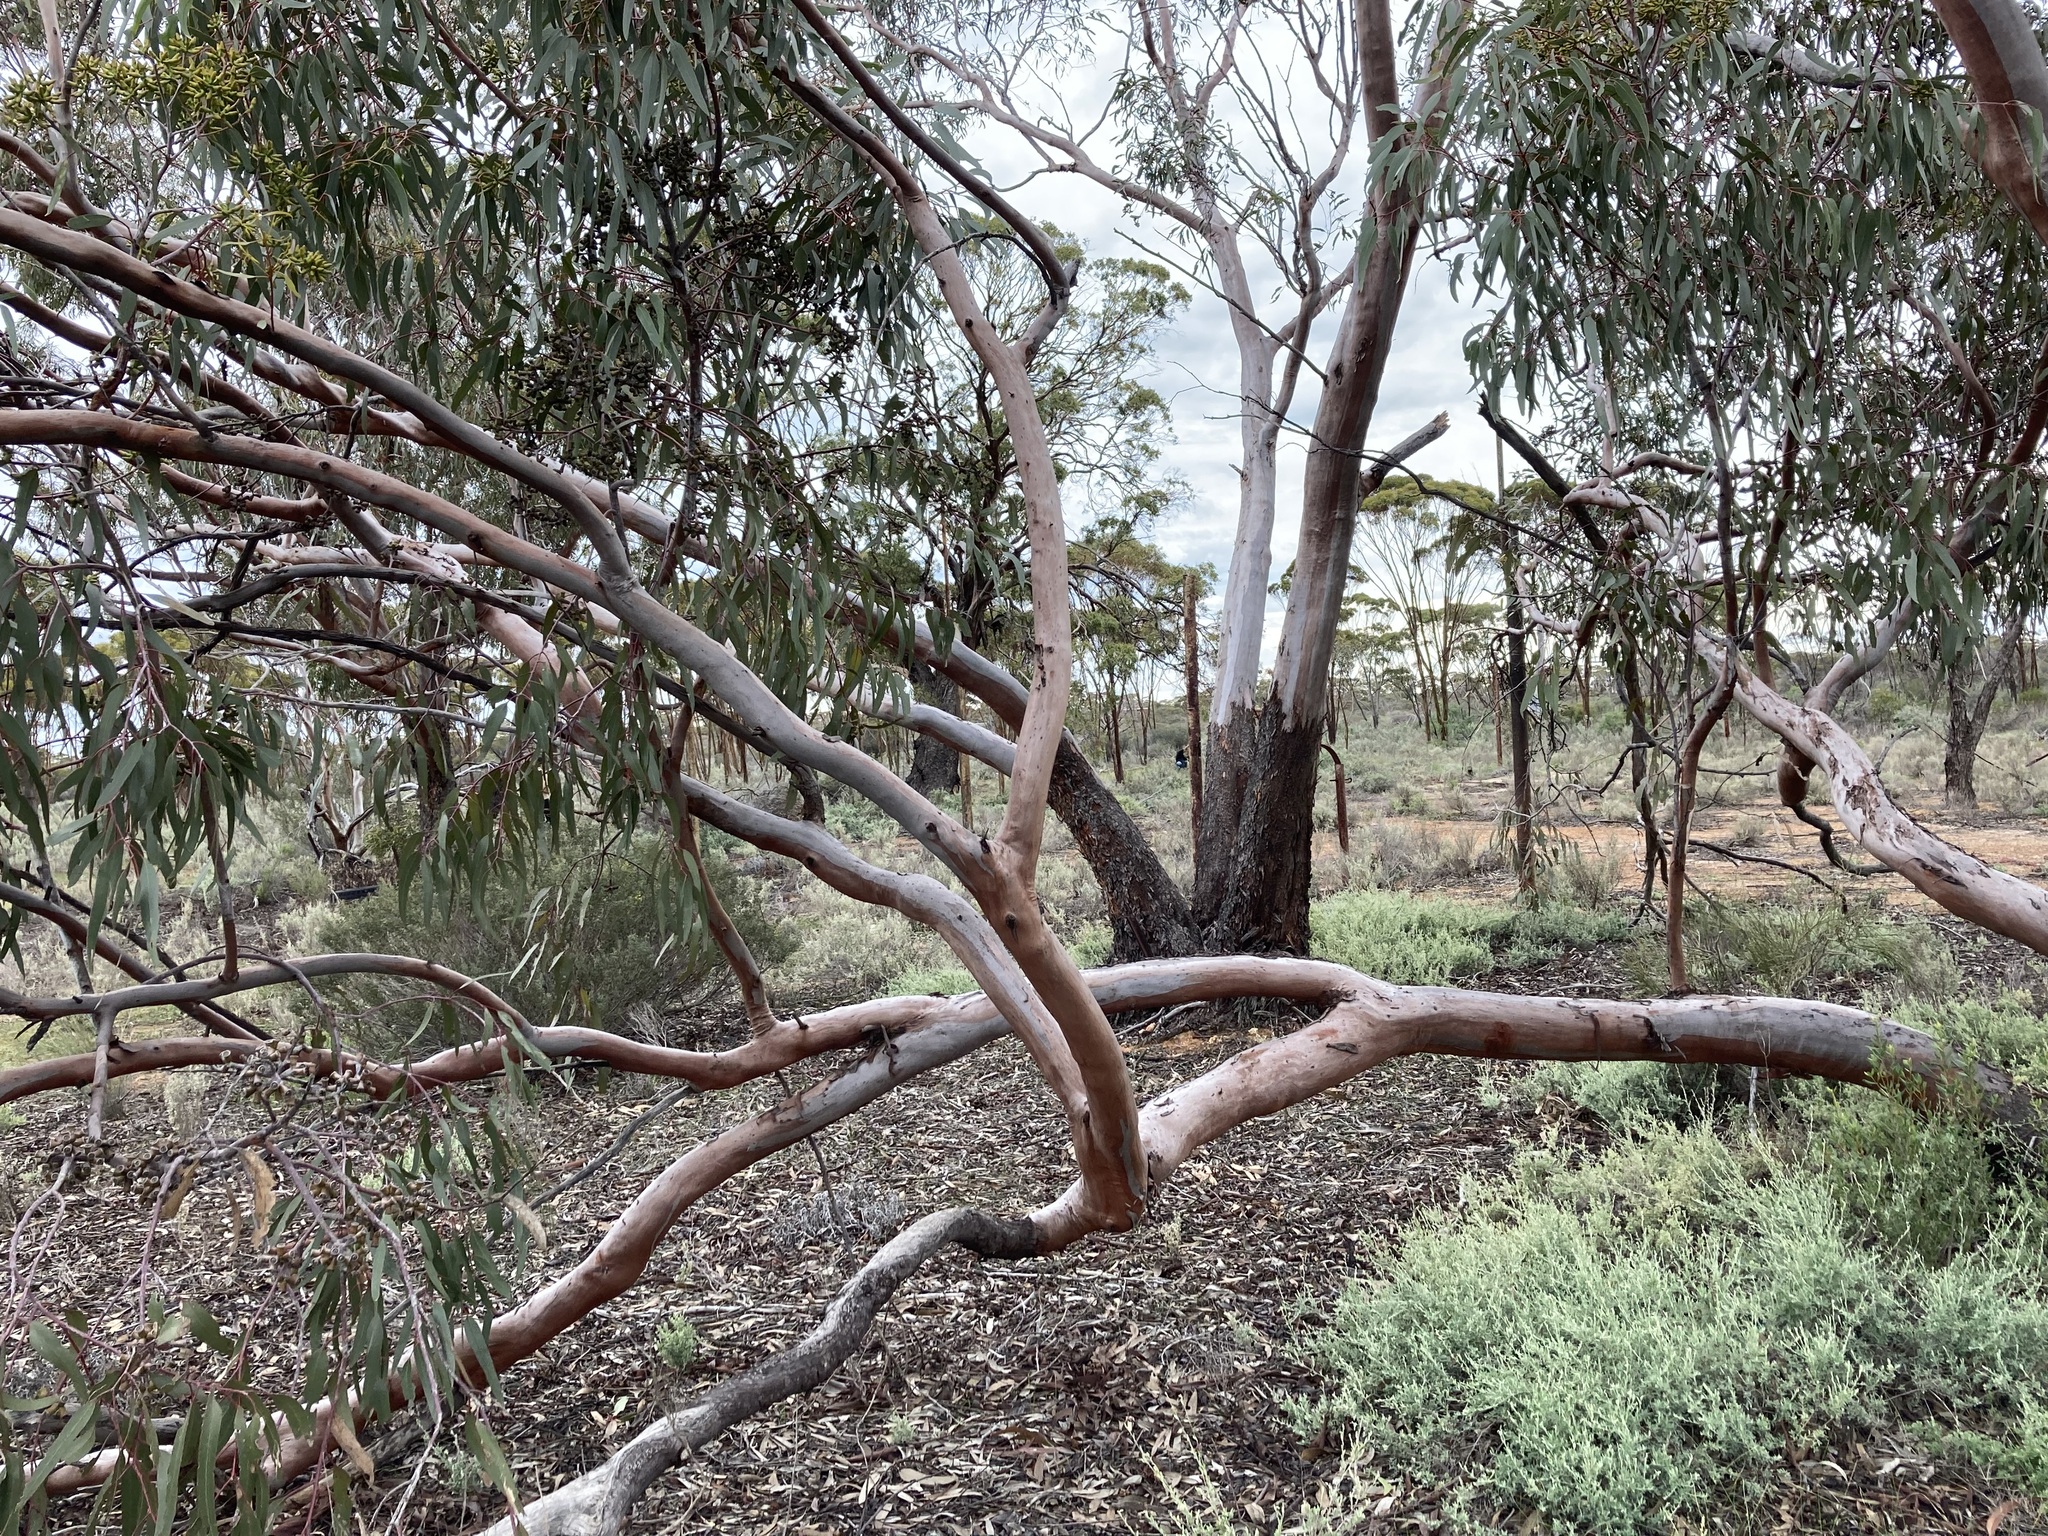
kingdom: Plantae
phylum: Tracheophyta
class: Magnoliopsida
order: Myrtales
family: Myrtaceae
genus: Eucalyptus
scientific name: Eucalyptus stricklandii
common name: Goldfields yellow-flower gum
